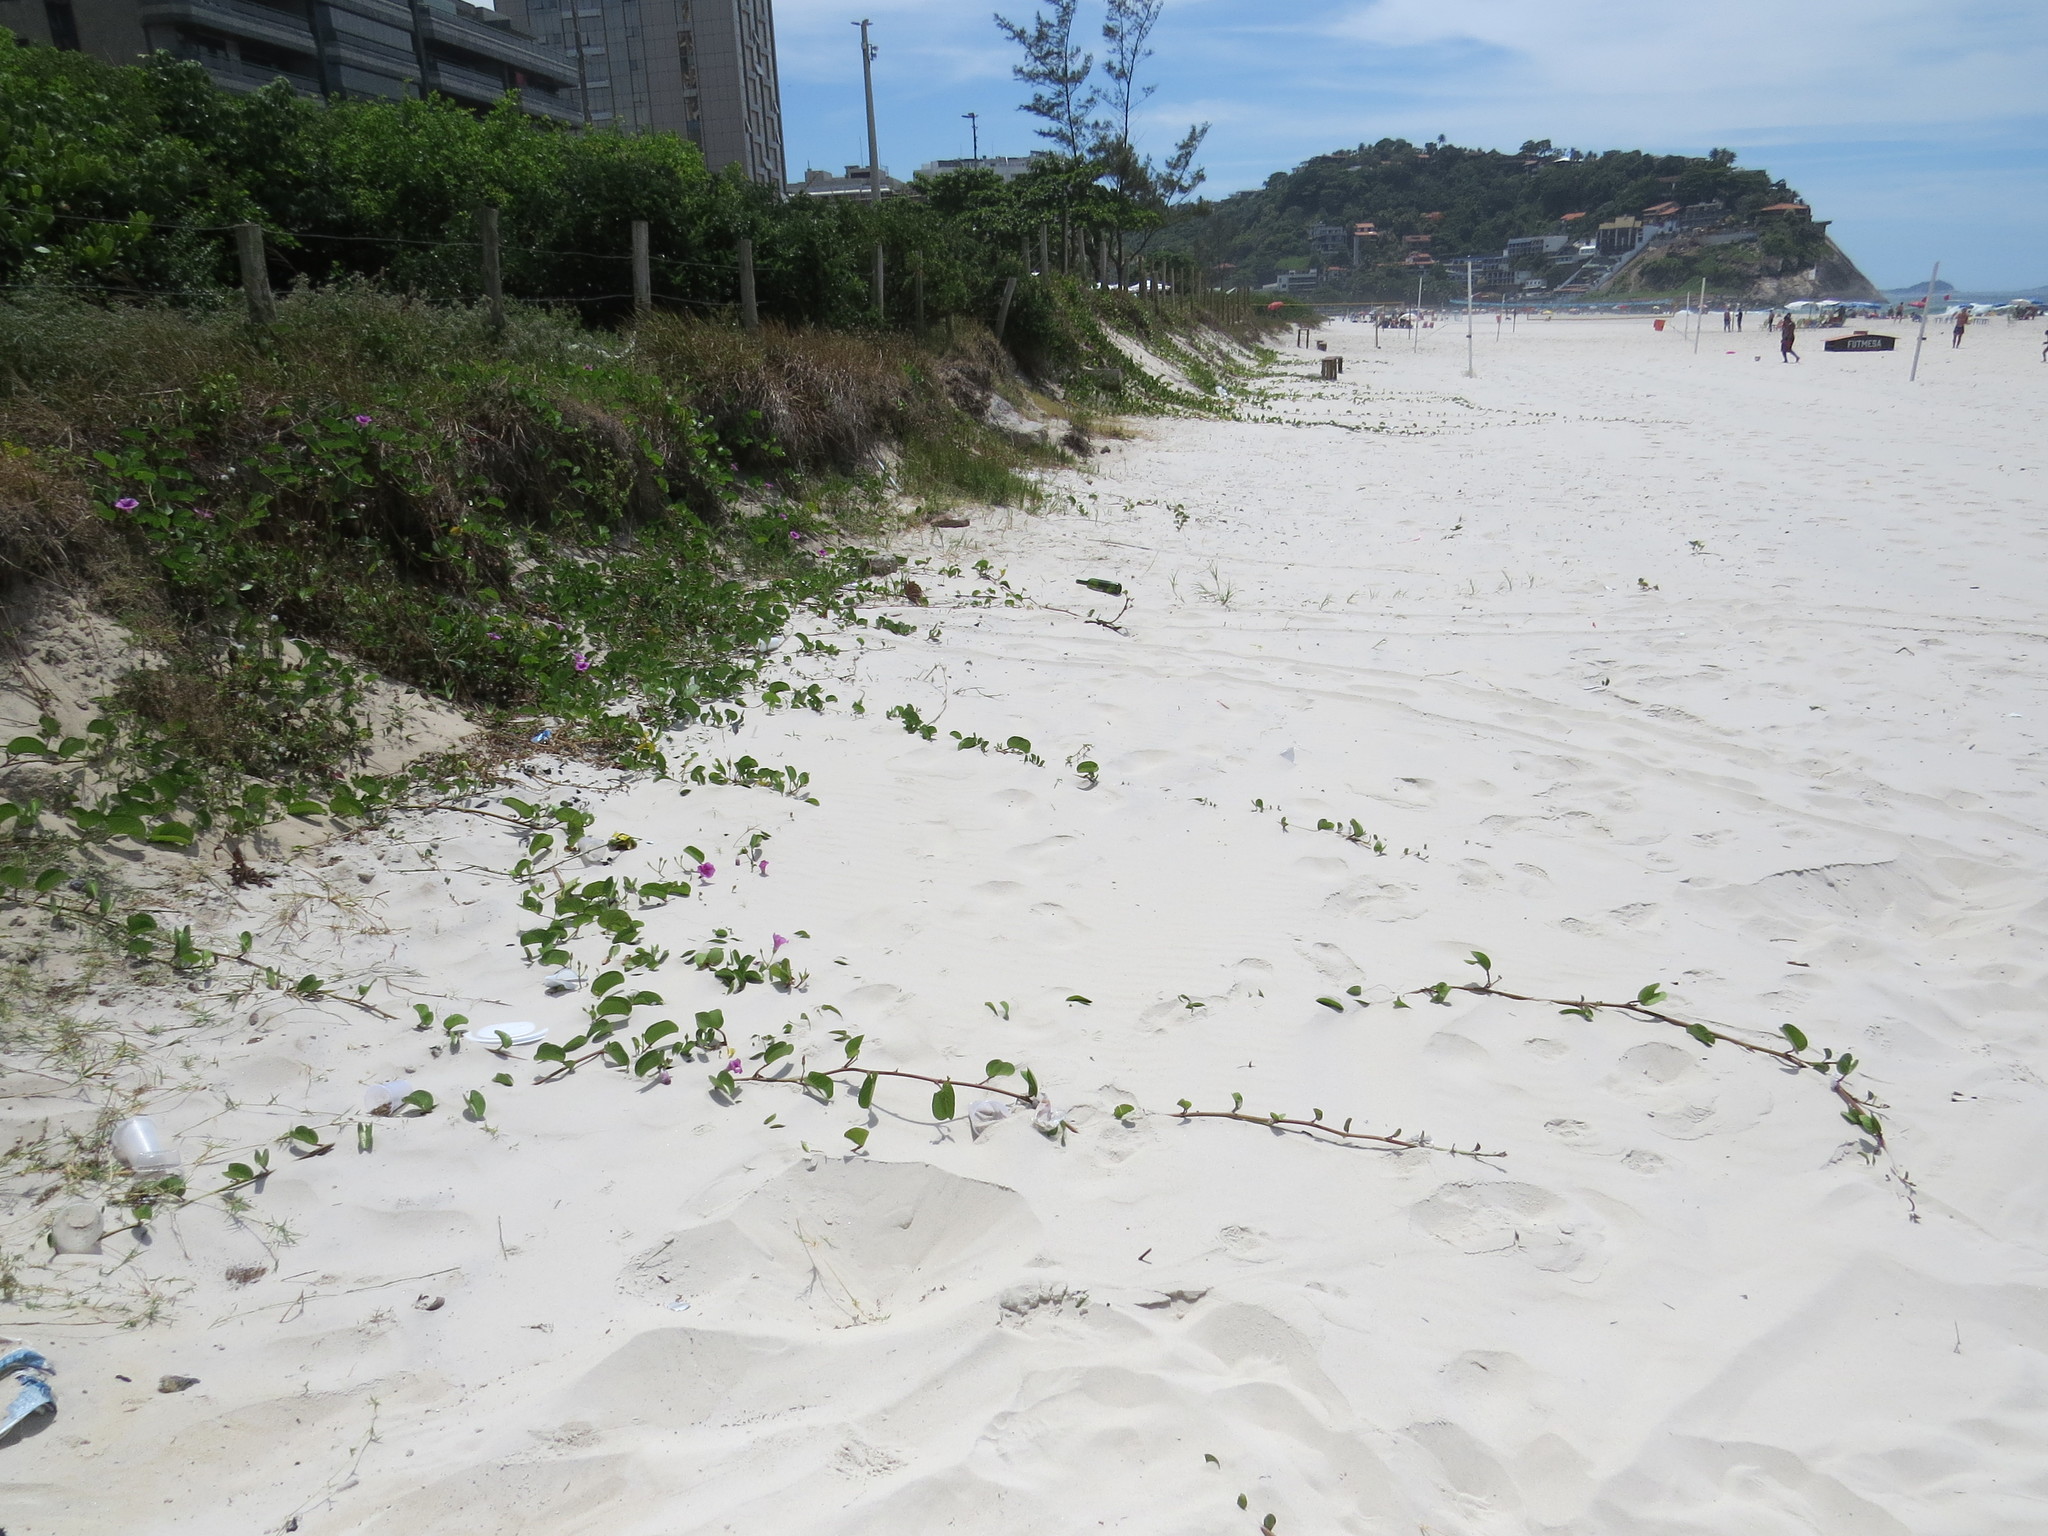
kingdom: Plantae
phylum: Tracheophyta
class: Magnoliopsida
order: Solanales
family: Convolvulaceae
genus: Ipomoea
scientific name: Ipomoea pes-caprae
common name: Beach morning glory
